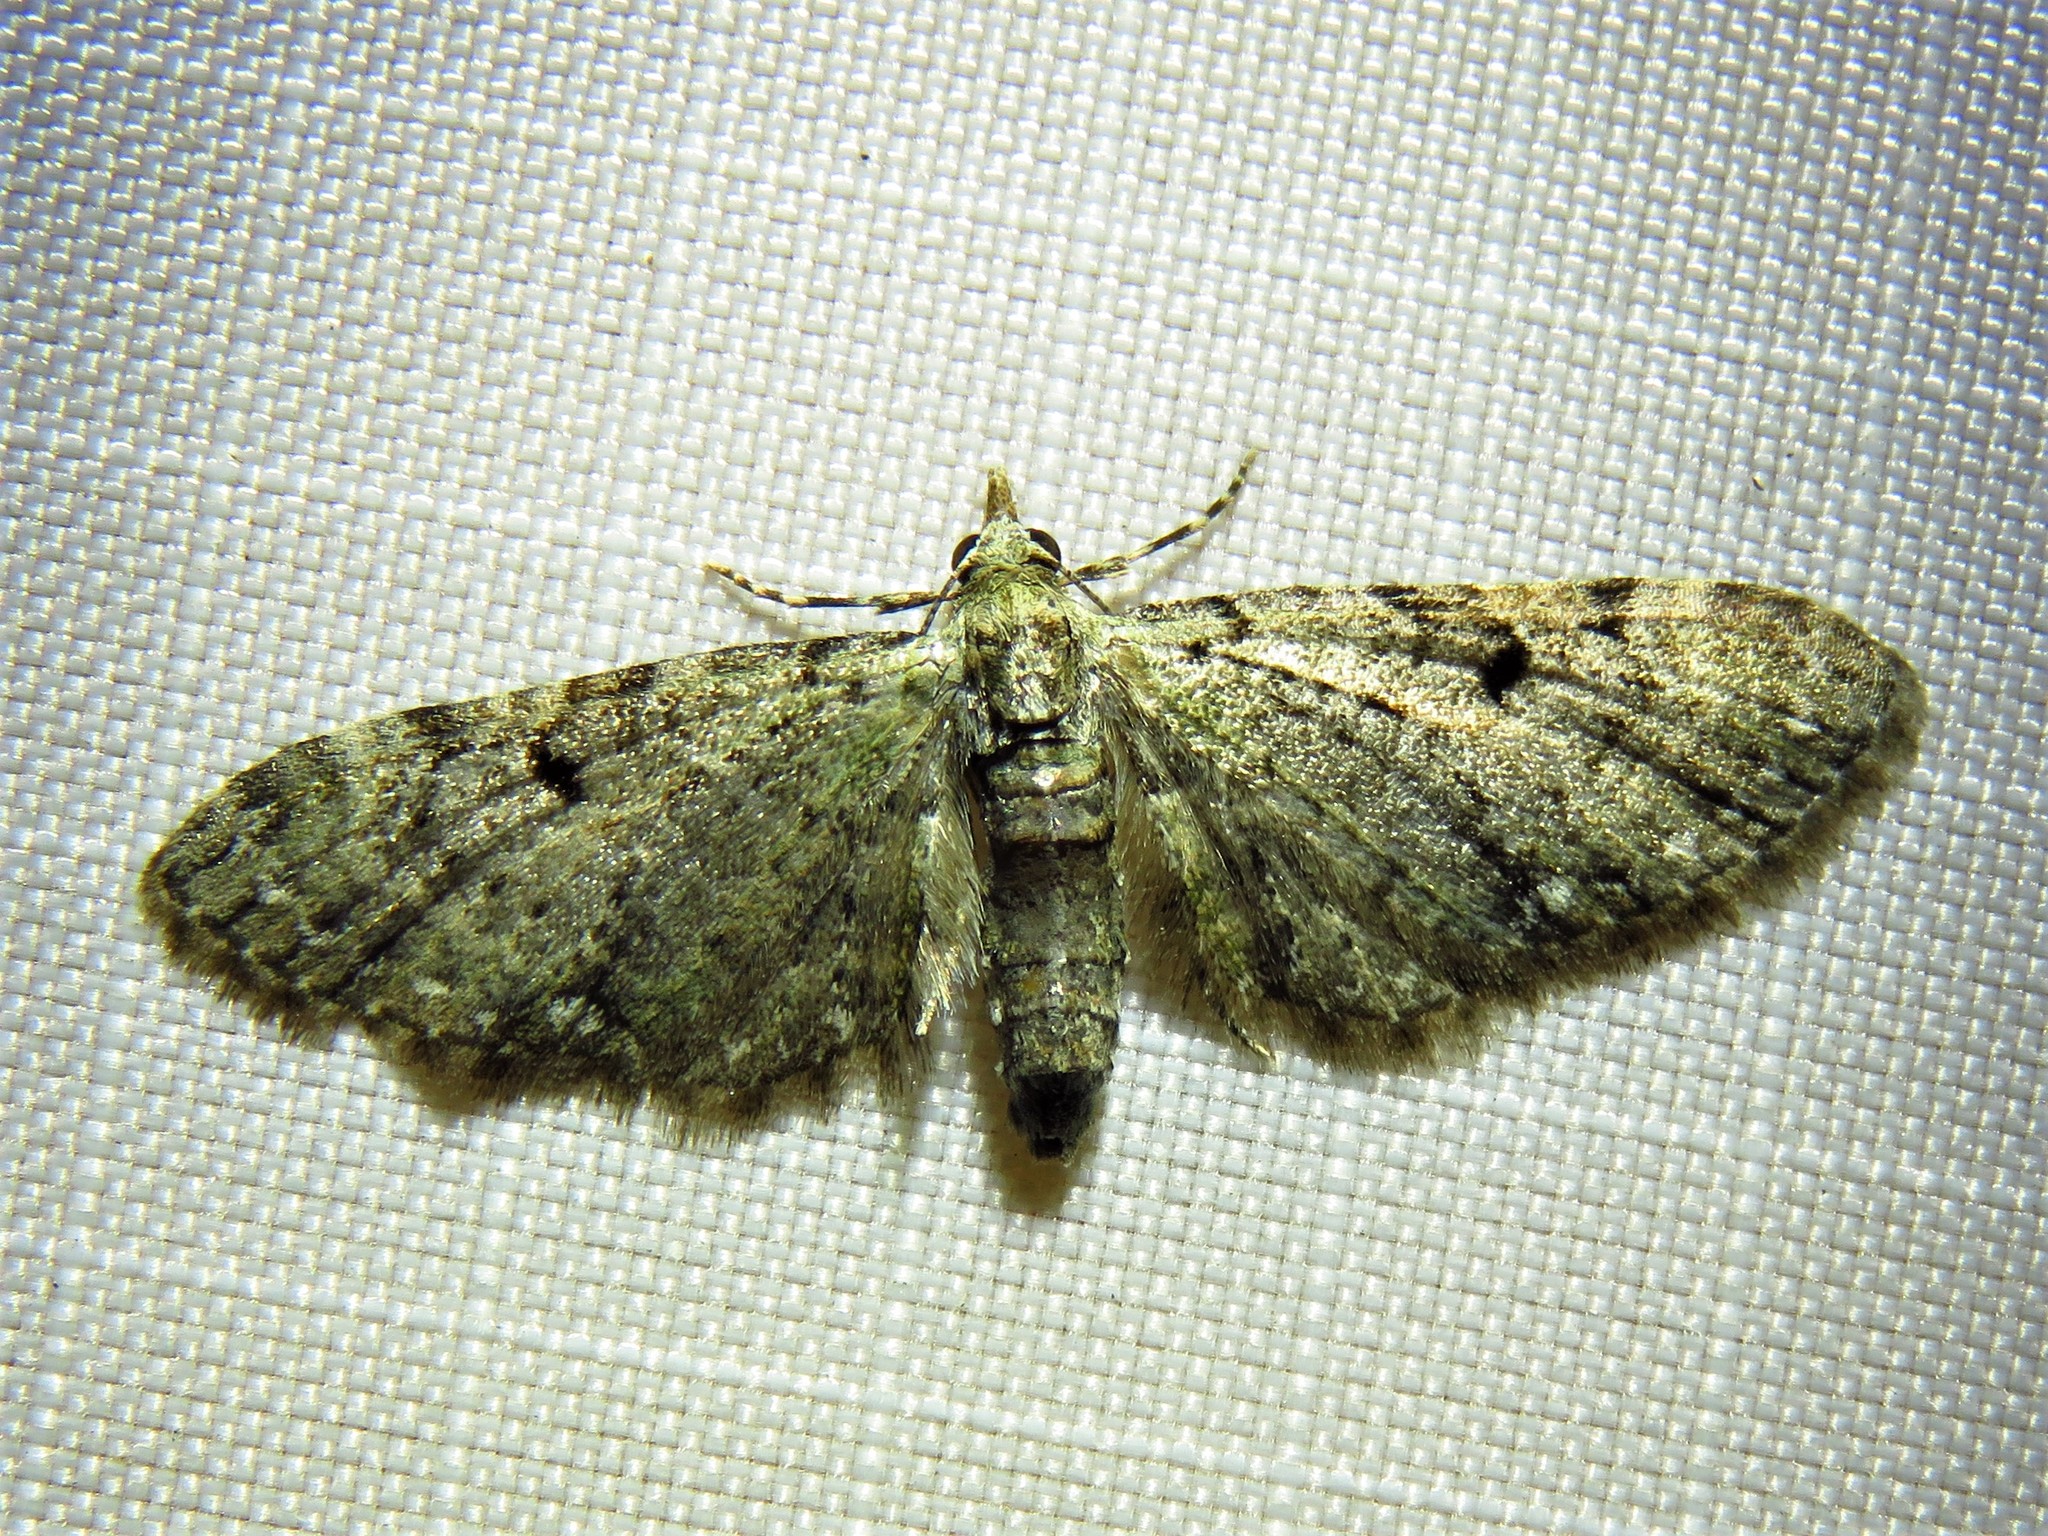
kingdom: Animalia
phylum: Arthropoda
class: Insecta
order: Lepidoptera
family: Geometridae
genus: Eupithecia
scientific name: Eupithecia miserulata
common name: Common eupithecia
